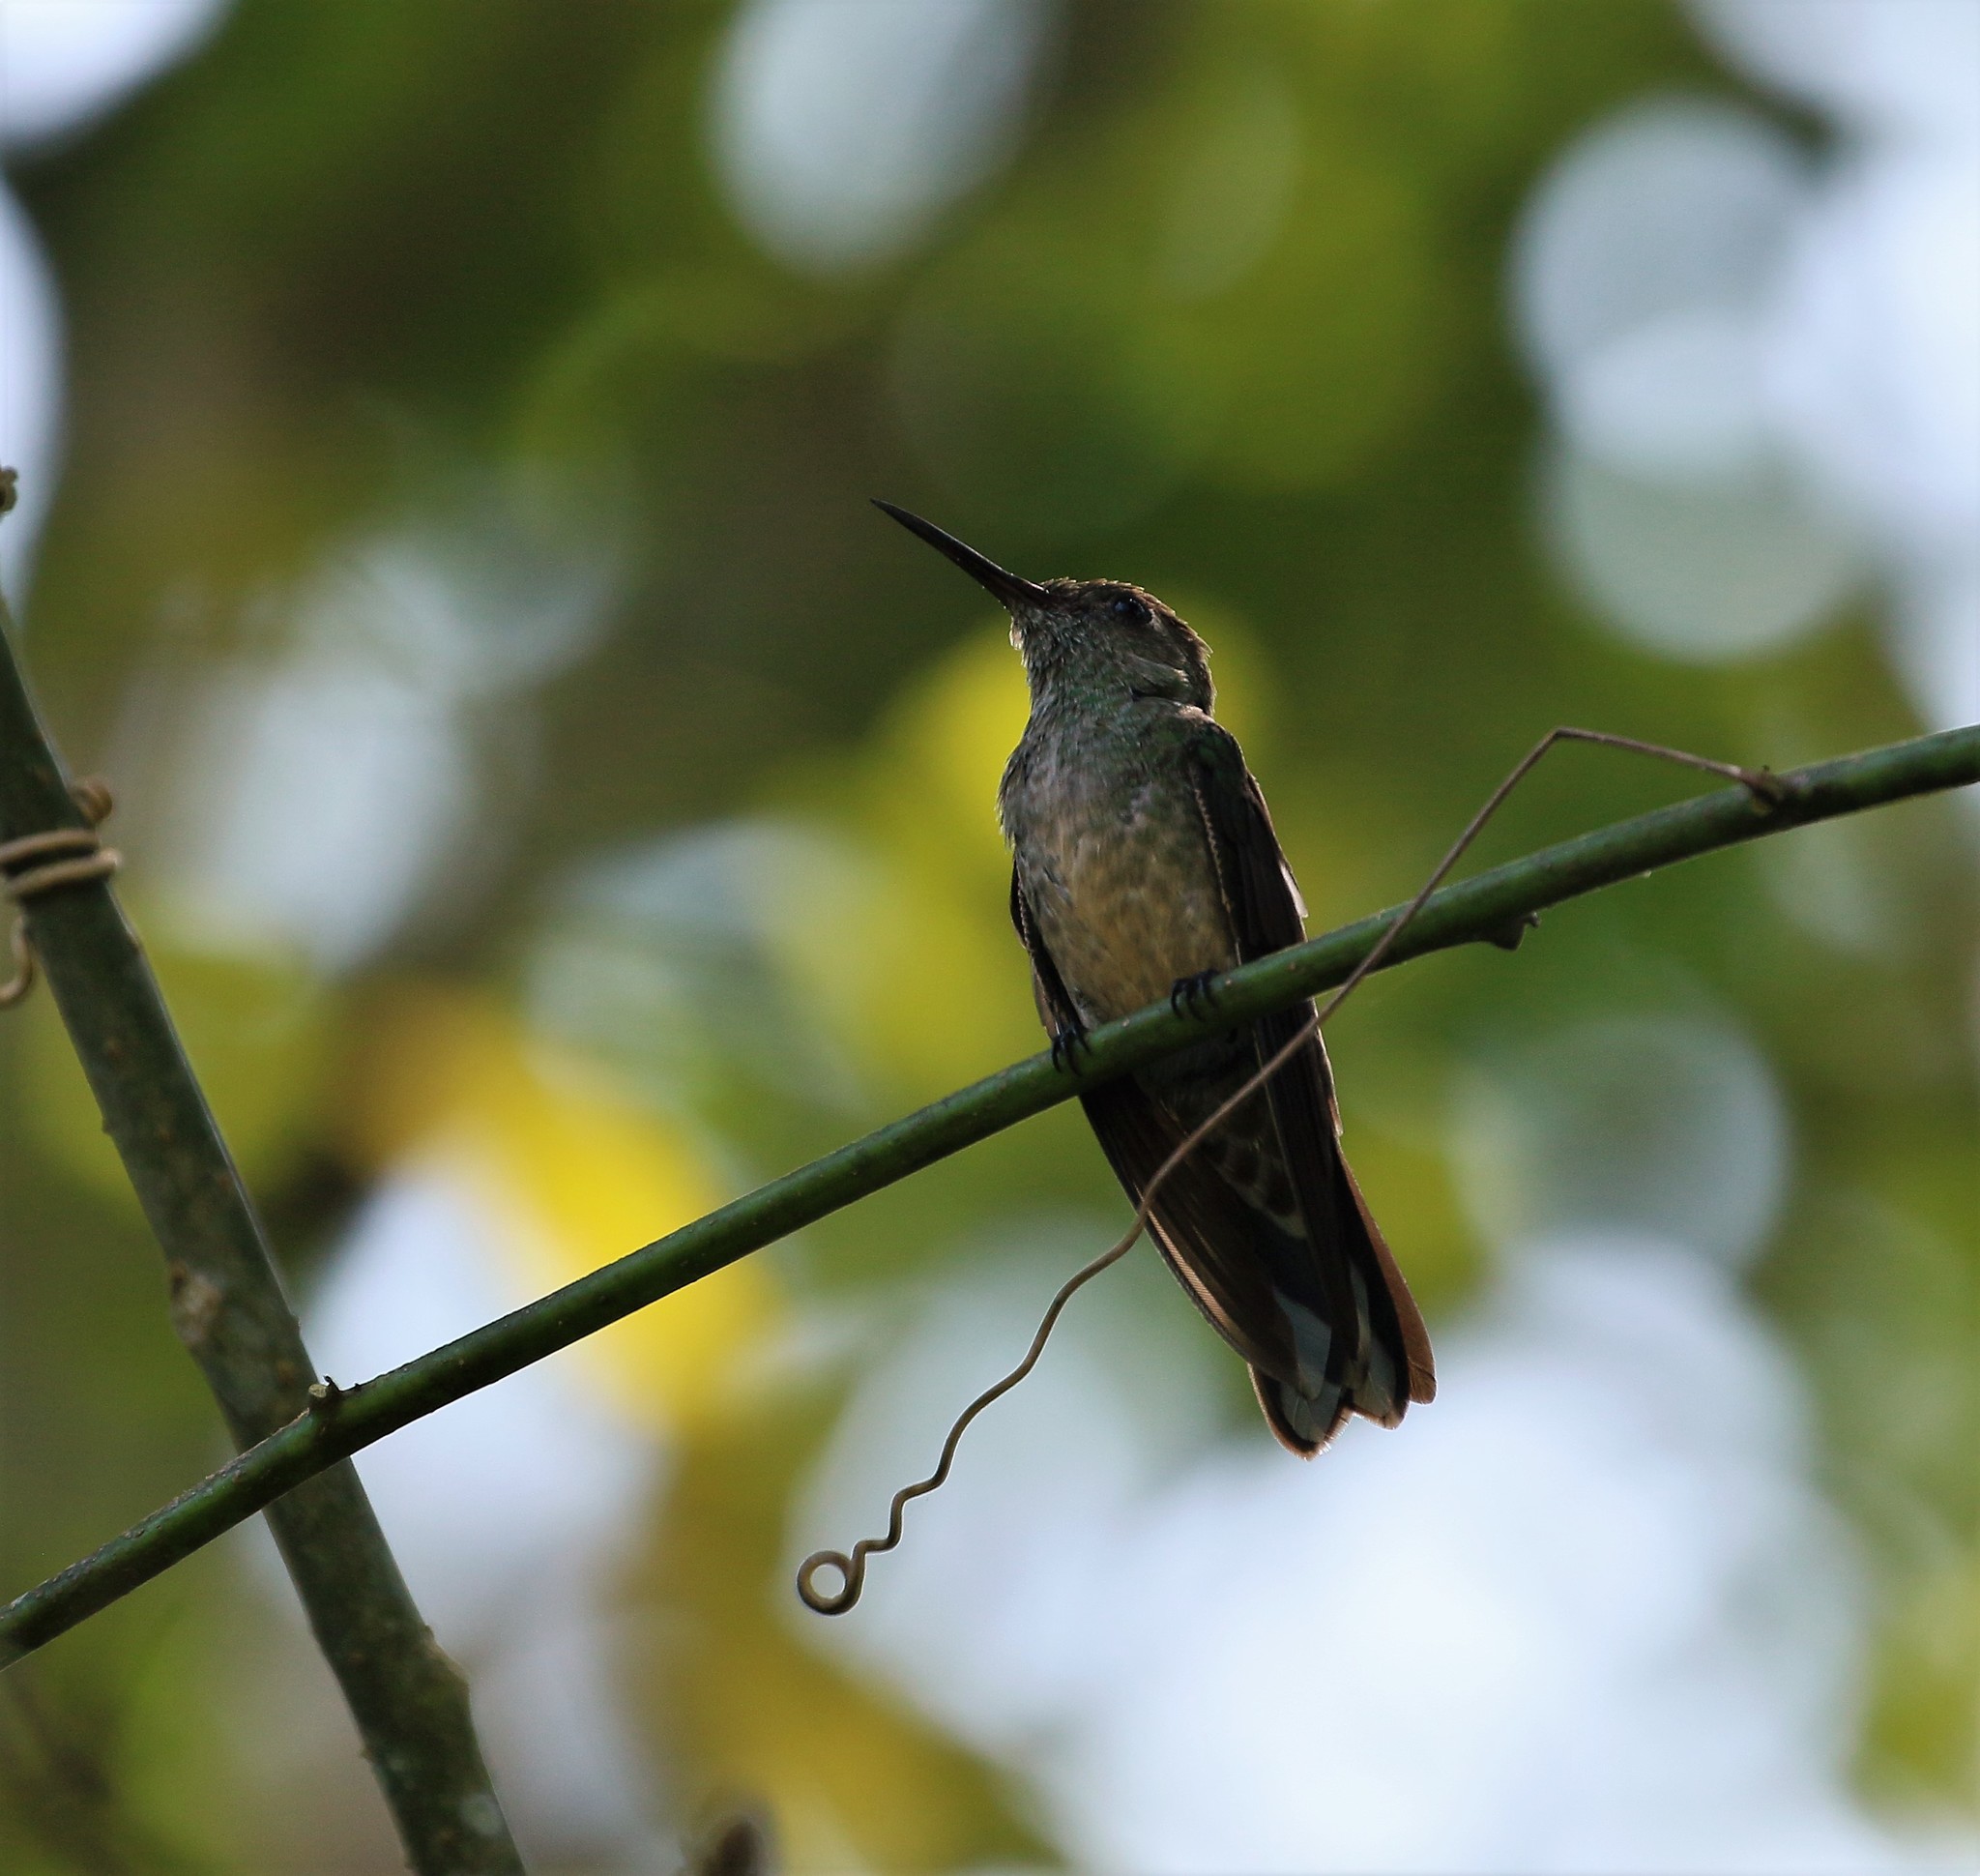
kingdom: Animalia
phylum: Chordata
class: Aves
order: Apodiformes
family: Trochilidae
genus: Phaeochroa
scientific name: Phaeochroa cuvierii
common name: Scaly-breasted hummingbird
